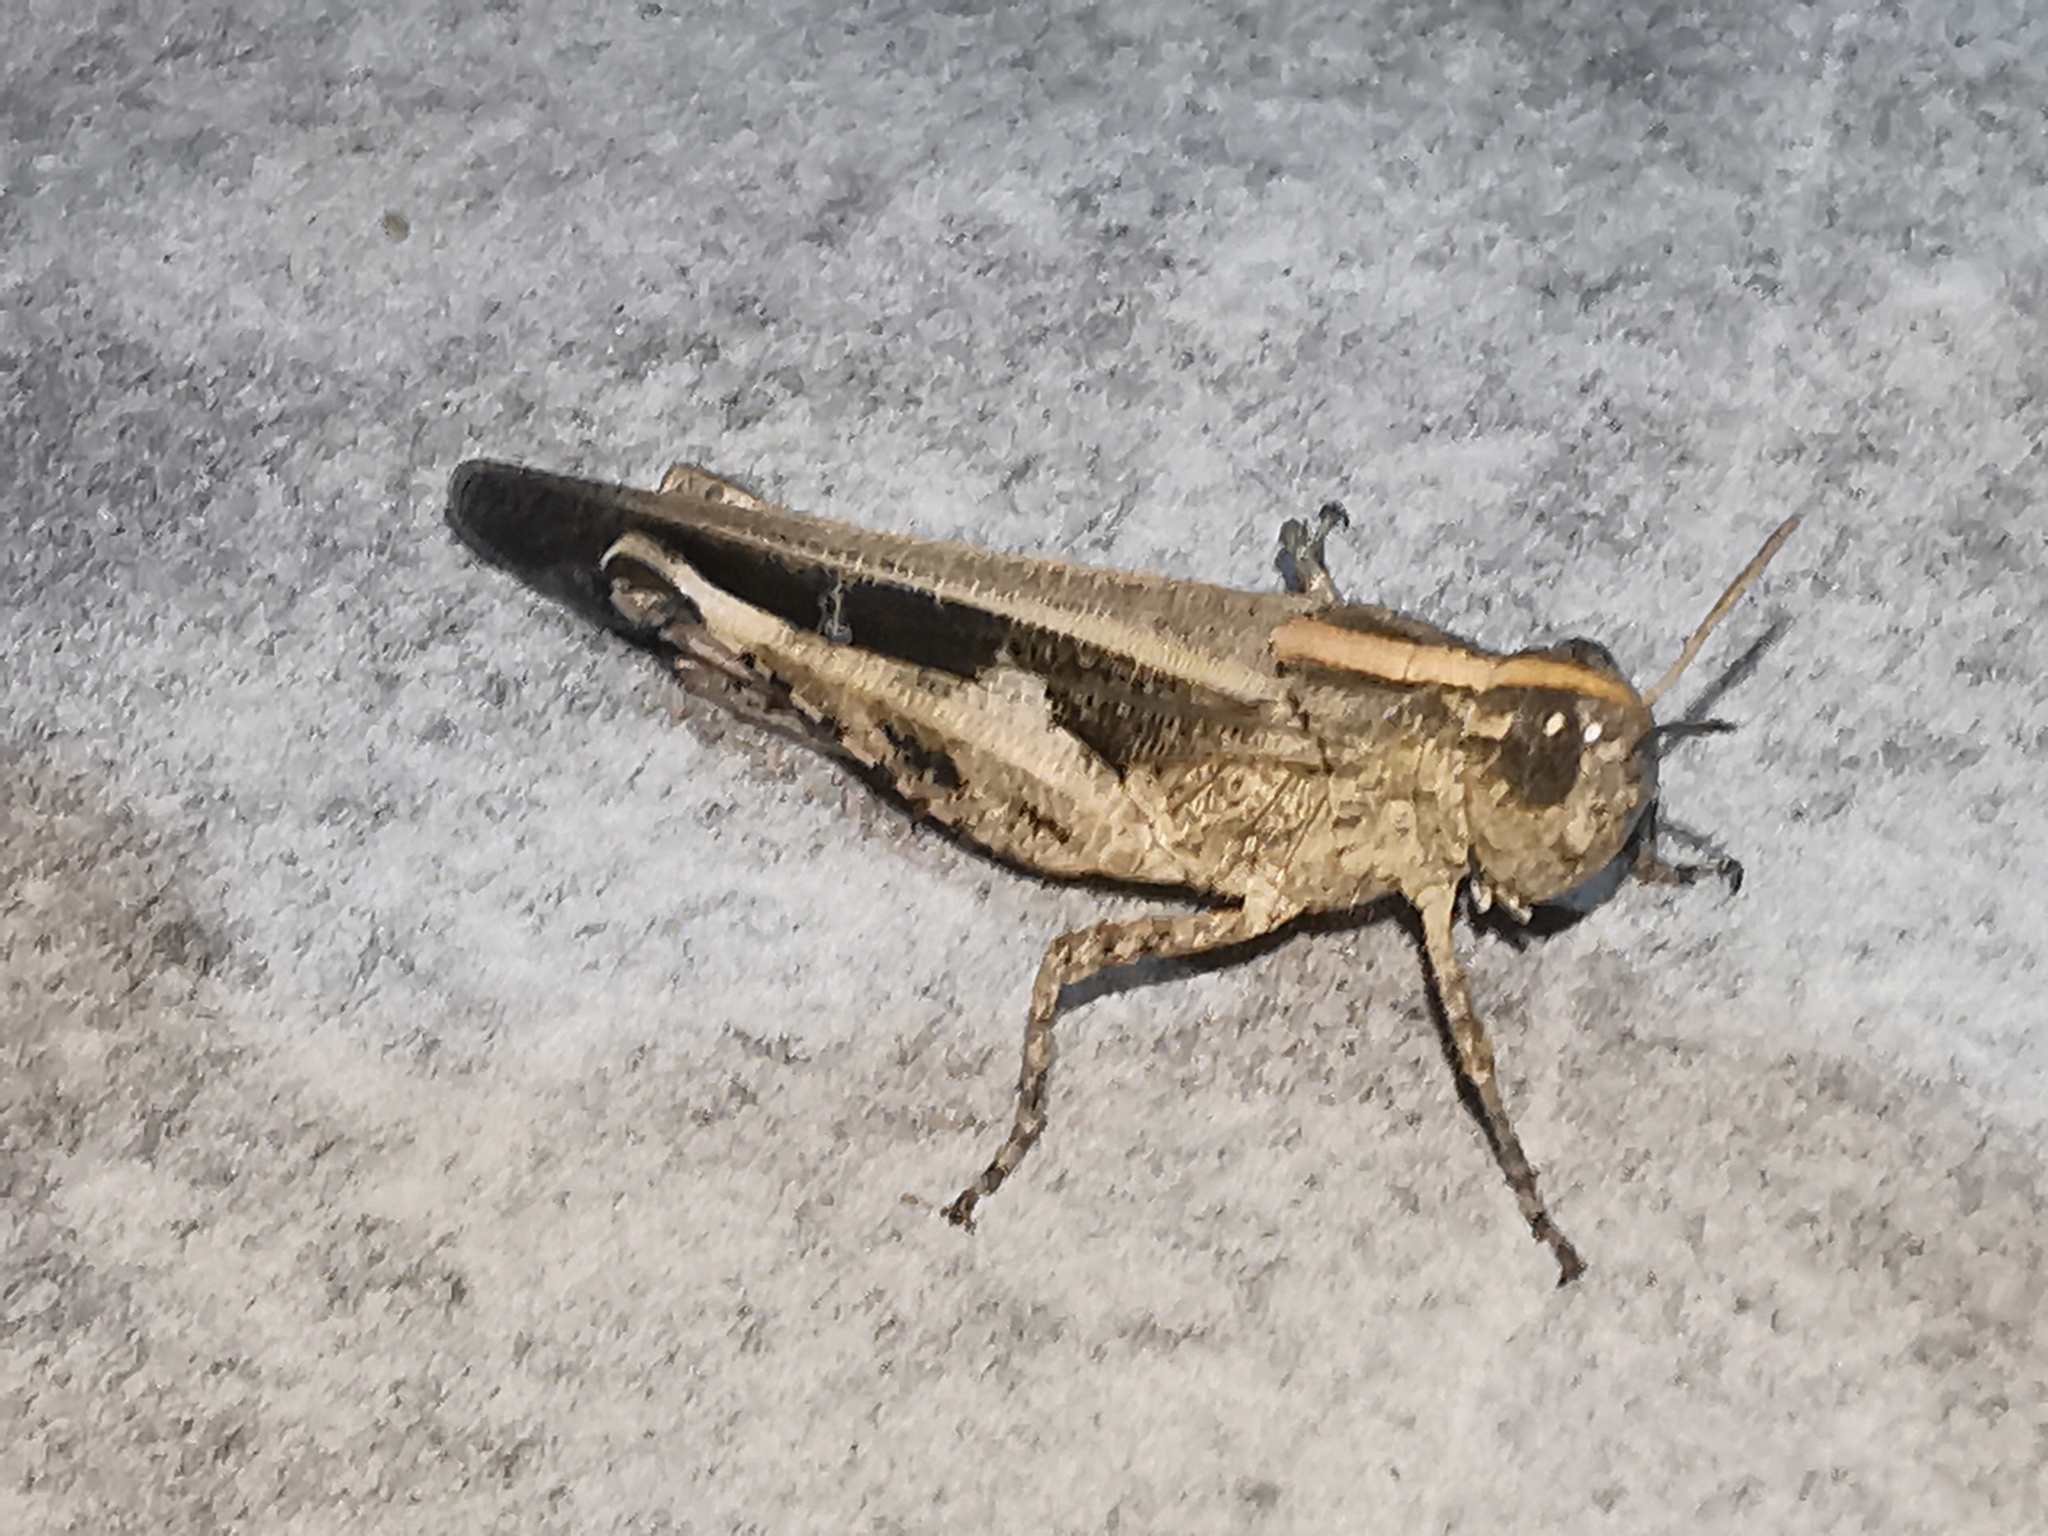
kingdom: Animalia
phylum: Arthropoda
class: Insecta
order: Orthoptera
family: Acrididae
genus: Aiolopus
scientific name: Aiolopus strepens
